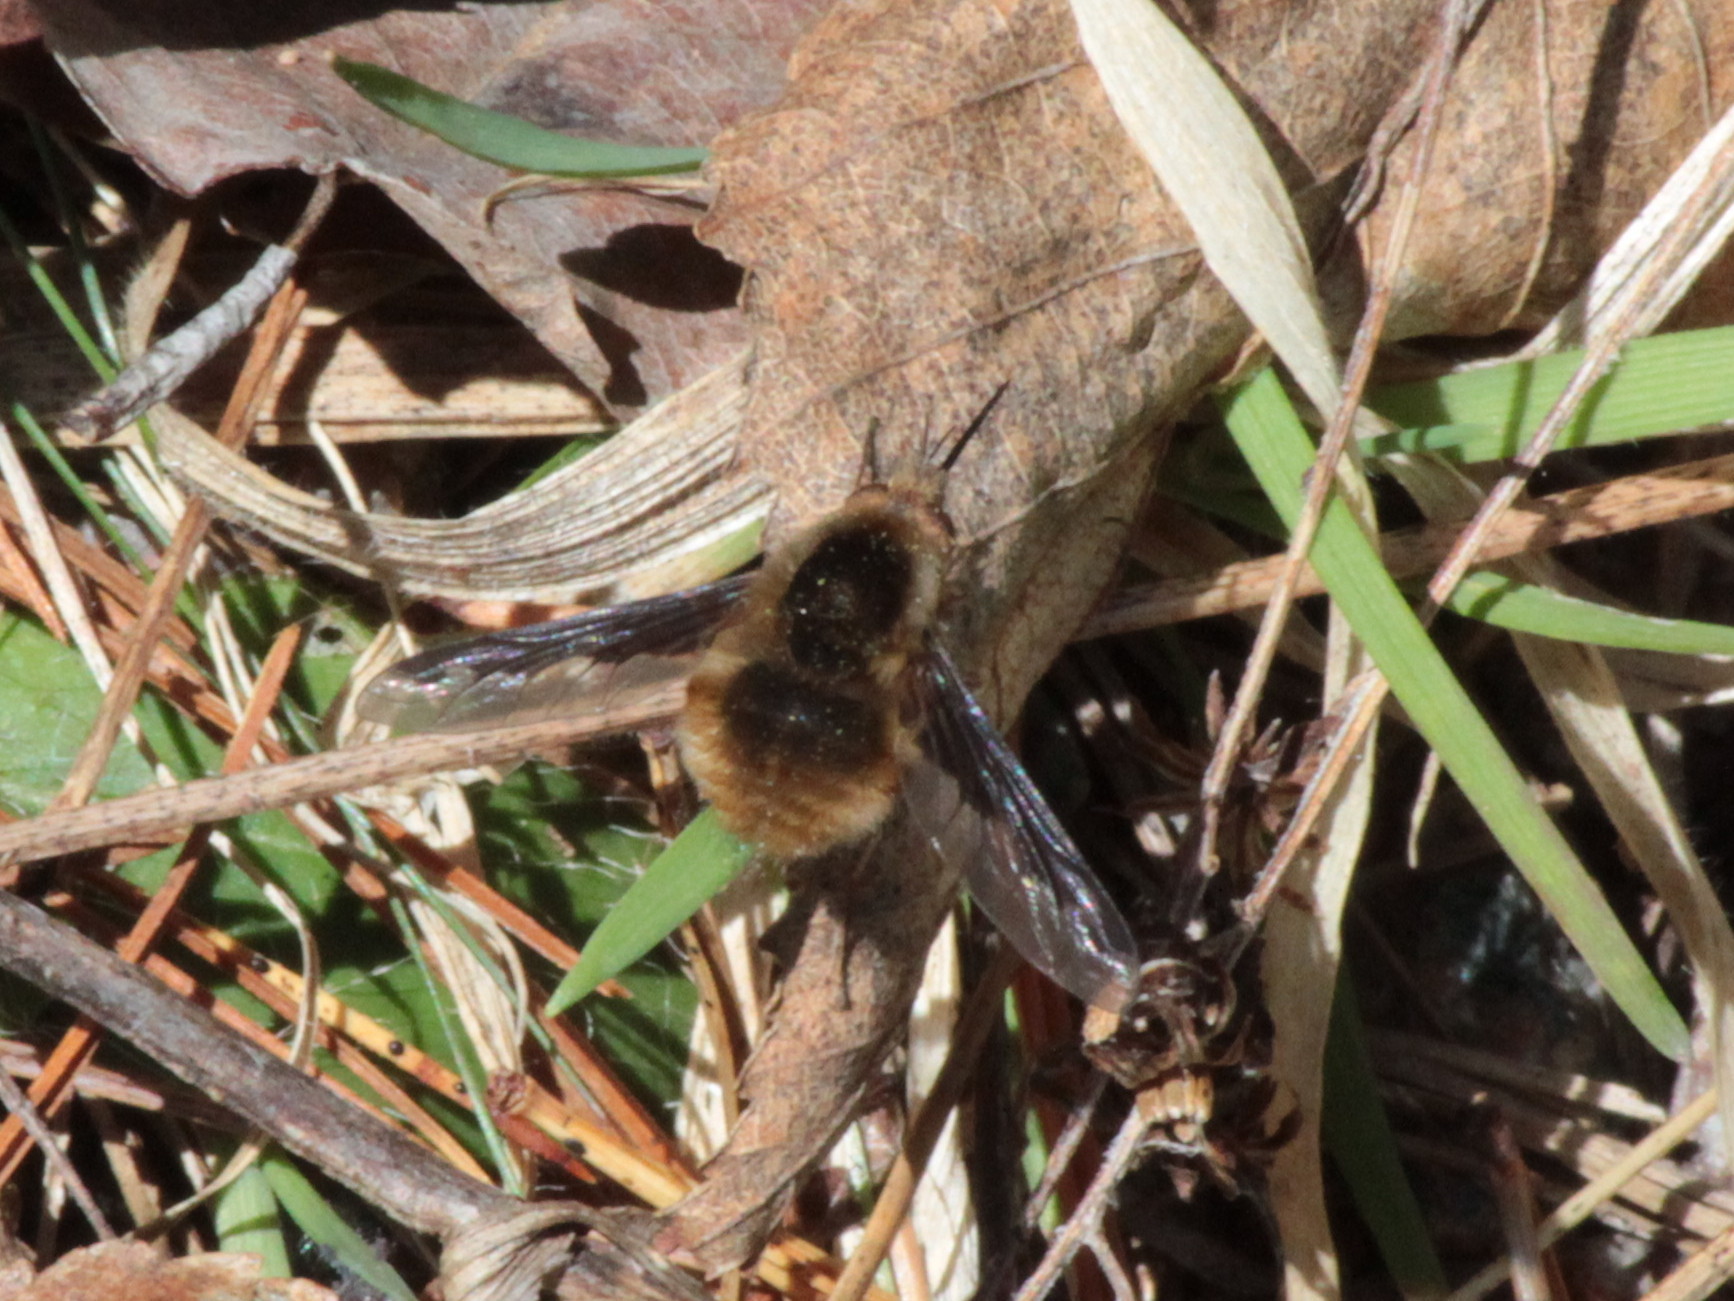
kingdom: Animalia
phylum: Arthropoda
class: Insecta
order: Diptera
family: Bombyliidae
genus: Bombylius
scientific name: Bombylius major
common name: Bee fly
